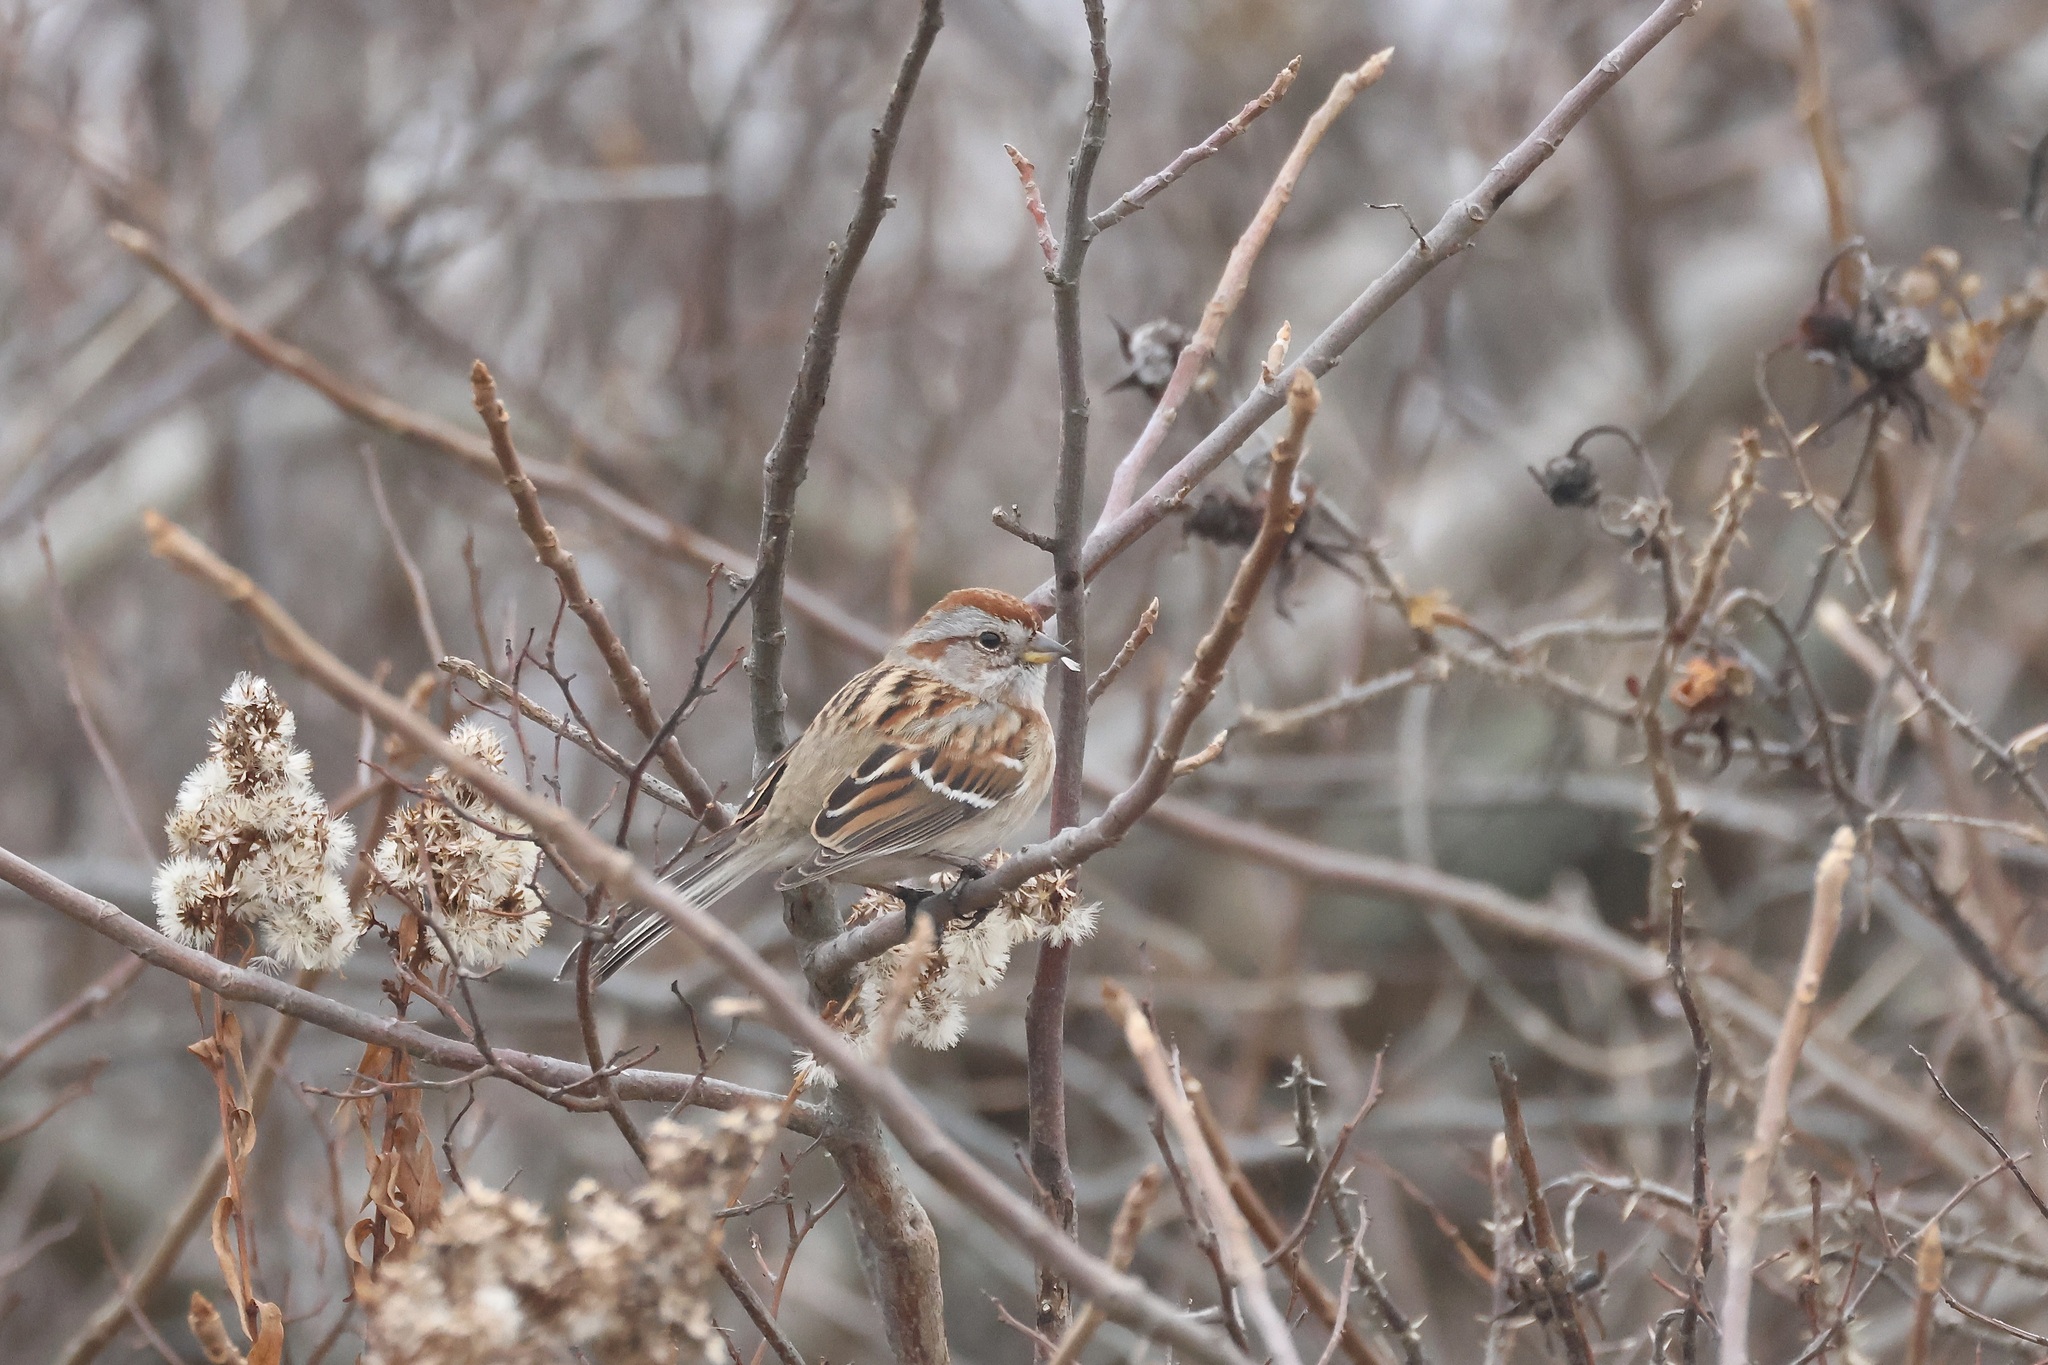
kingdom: Animalia
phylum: Chordata
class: Aves
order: Passeriformes
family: Passerellidae
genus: Spizelloides
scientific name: Spizelloides arborea
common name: American tree sparrow
